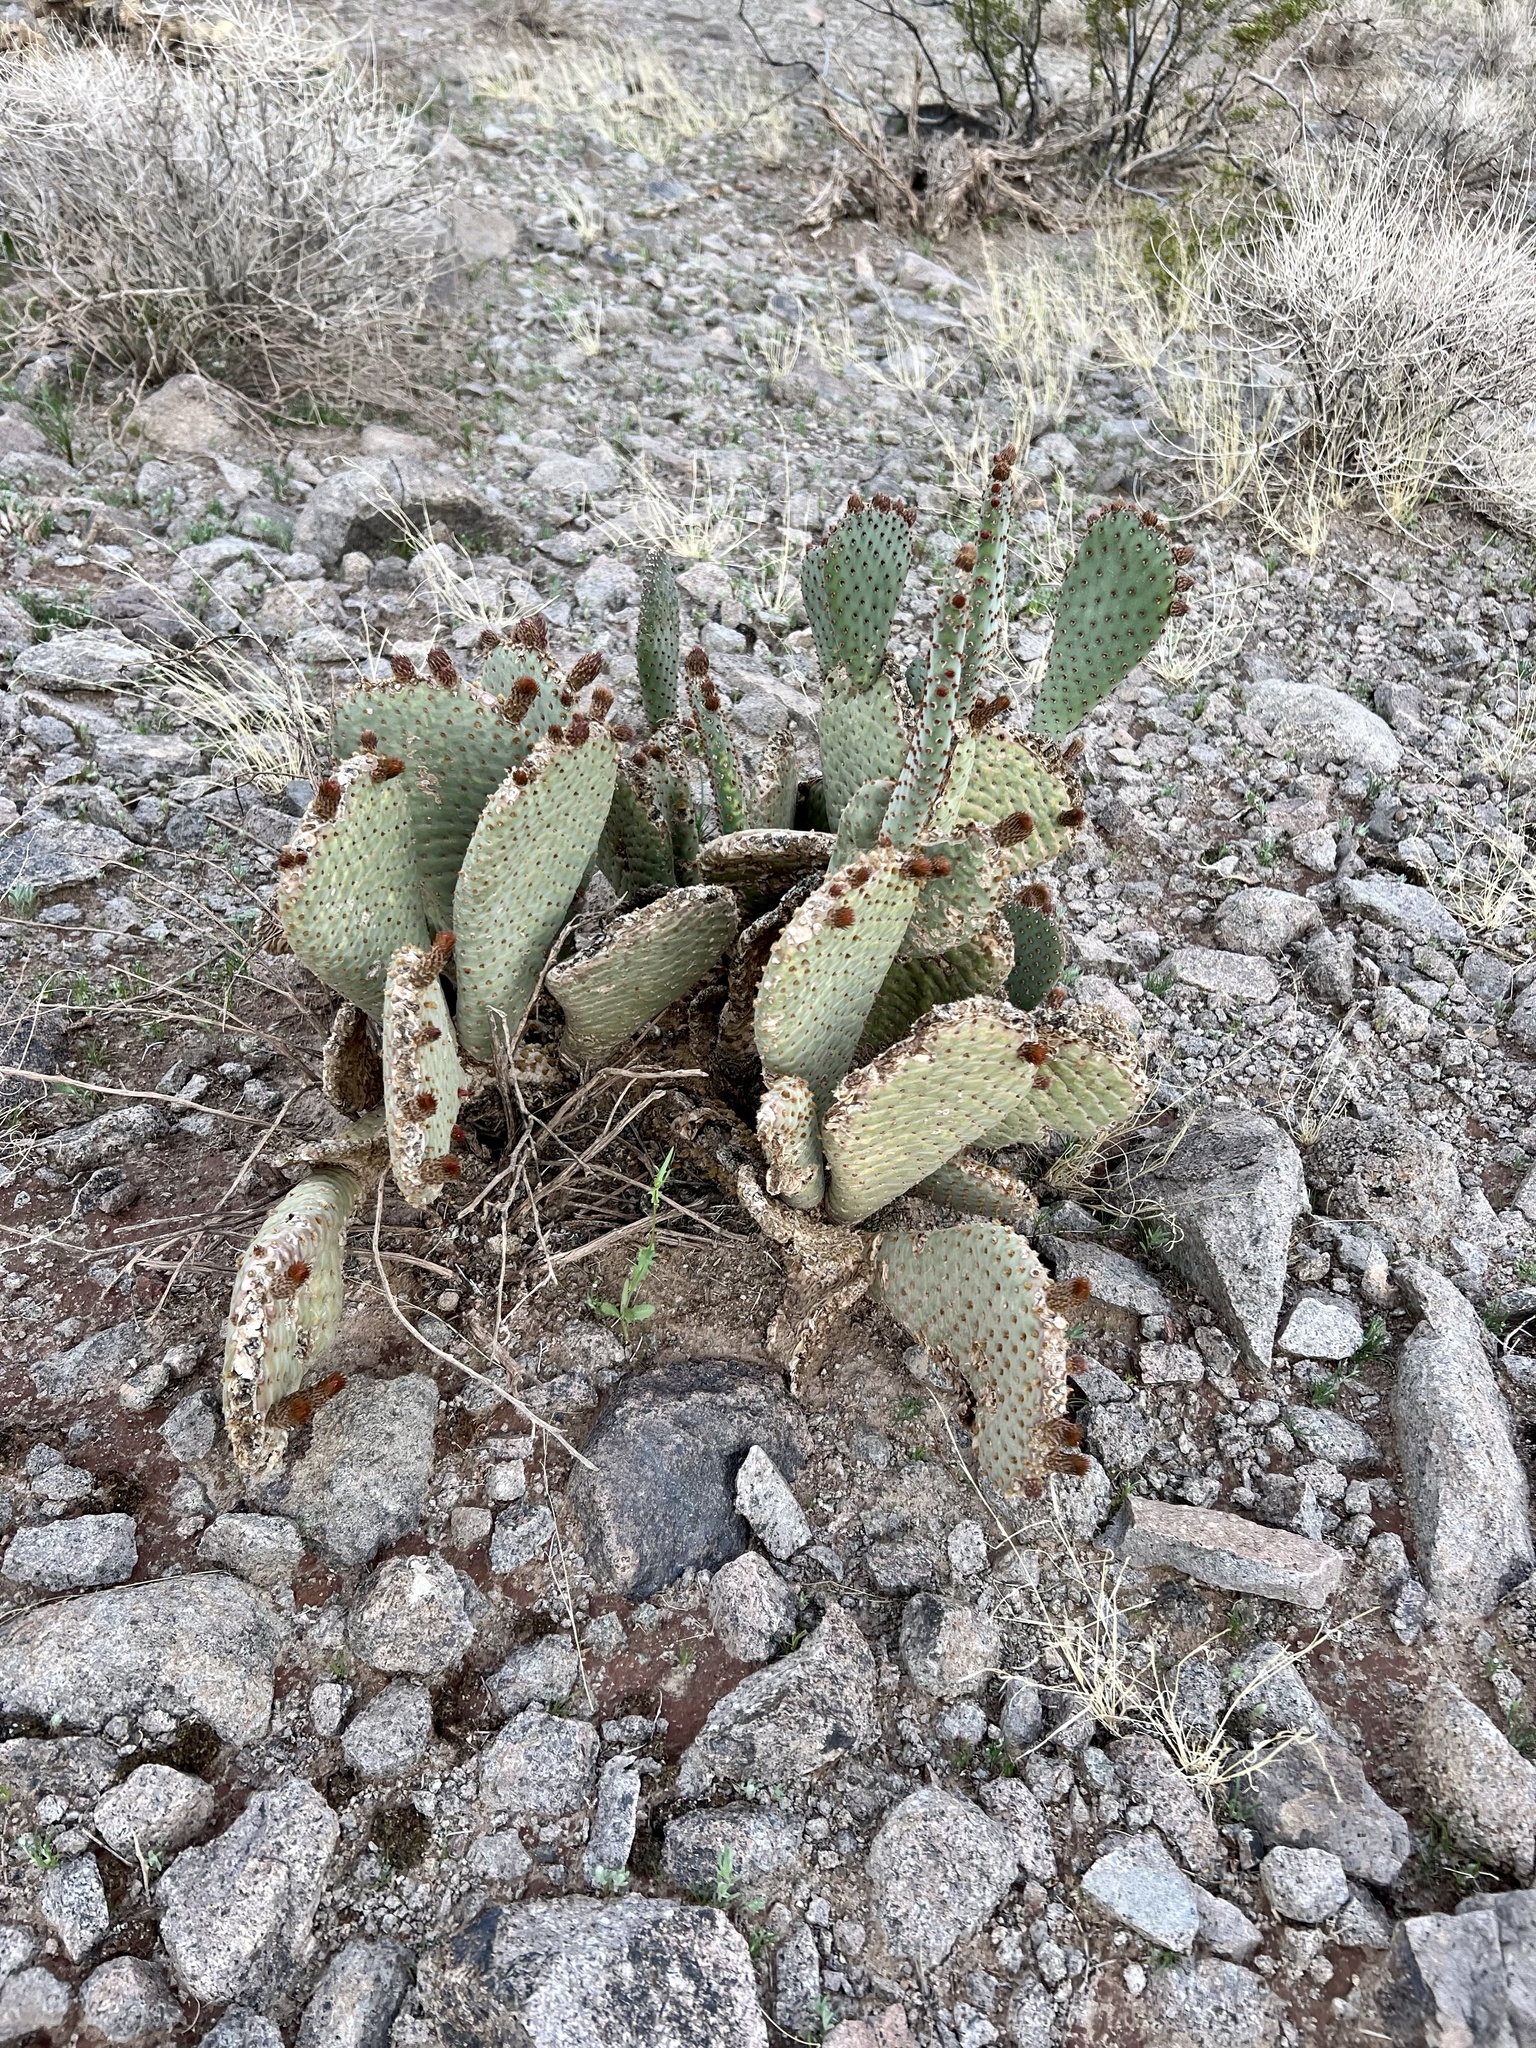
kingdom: Plantae
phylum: Tracheophyta
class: Magnoliopsida
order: Caryophyllales
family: Cactaceae
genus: Opuntia
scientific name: Opuntia basilaris
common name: Beavertail prickly-pear
